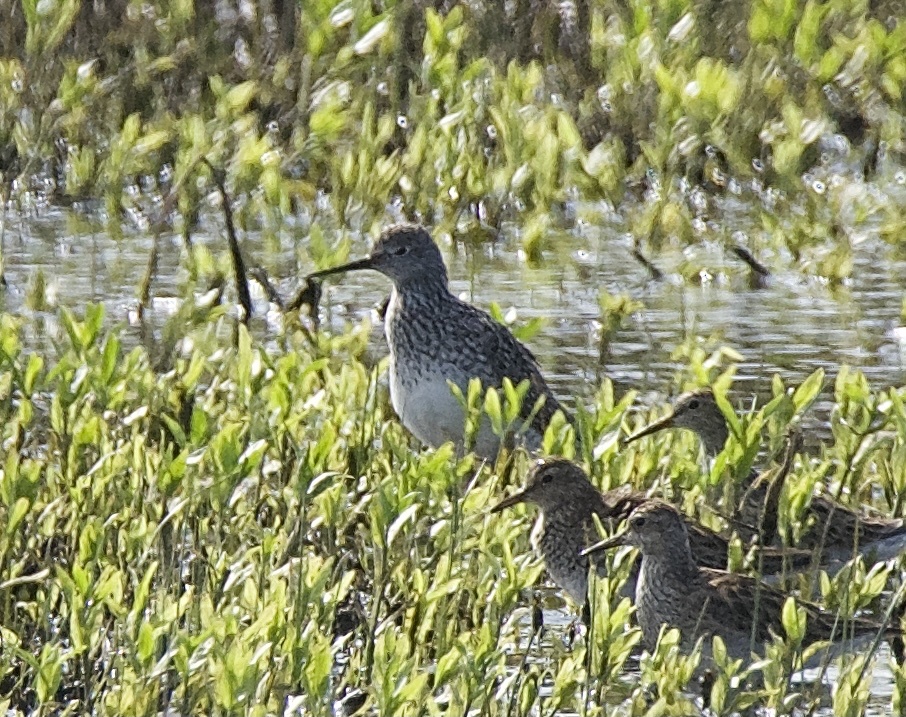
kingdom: Animalia
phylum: Chordata
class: Aves
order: Charadriiformes
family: Scolopacidae
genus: Tringa
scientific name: Tringa flavipes
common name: Lesser yellowlegs
